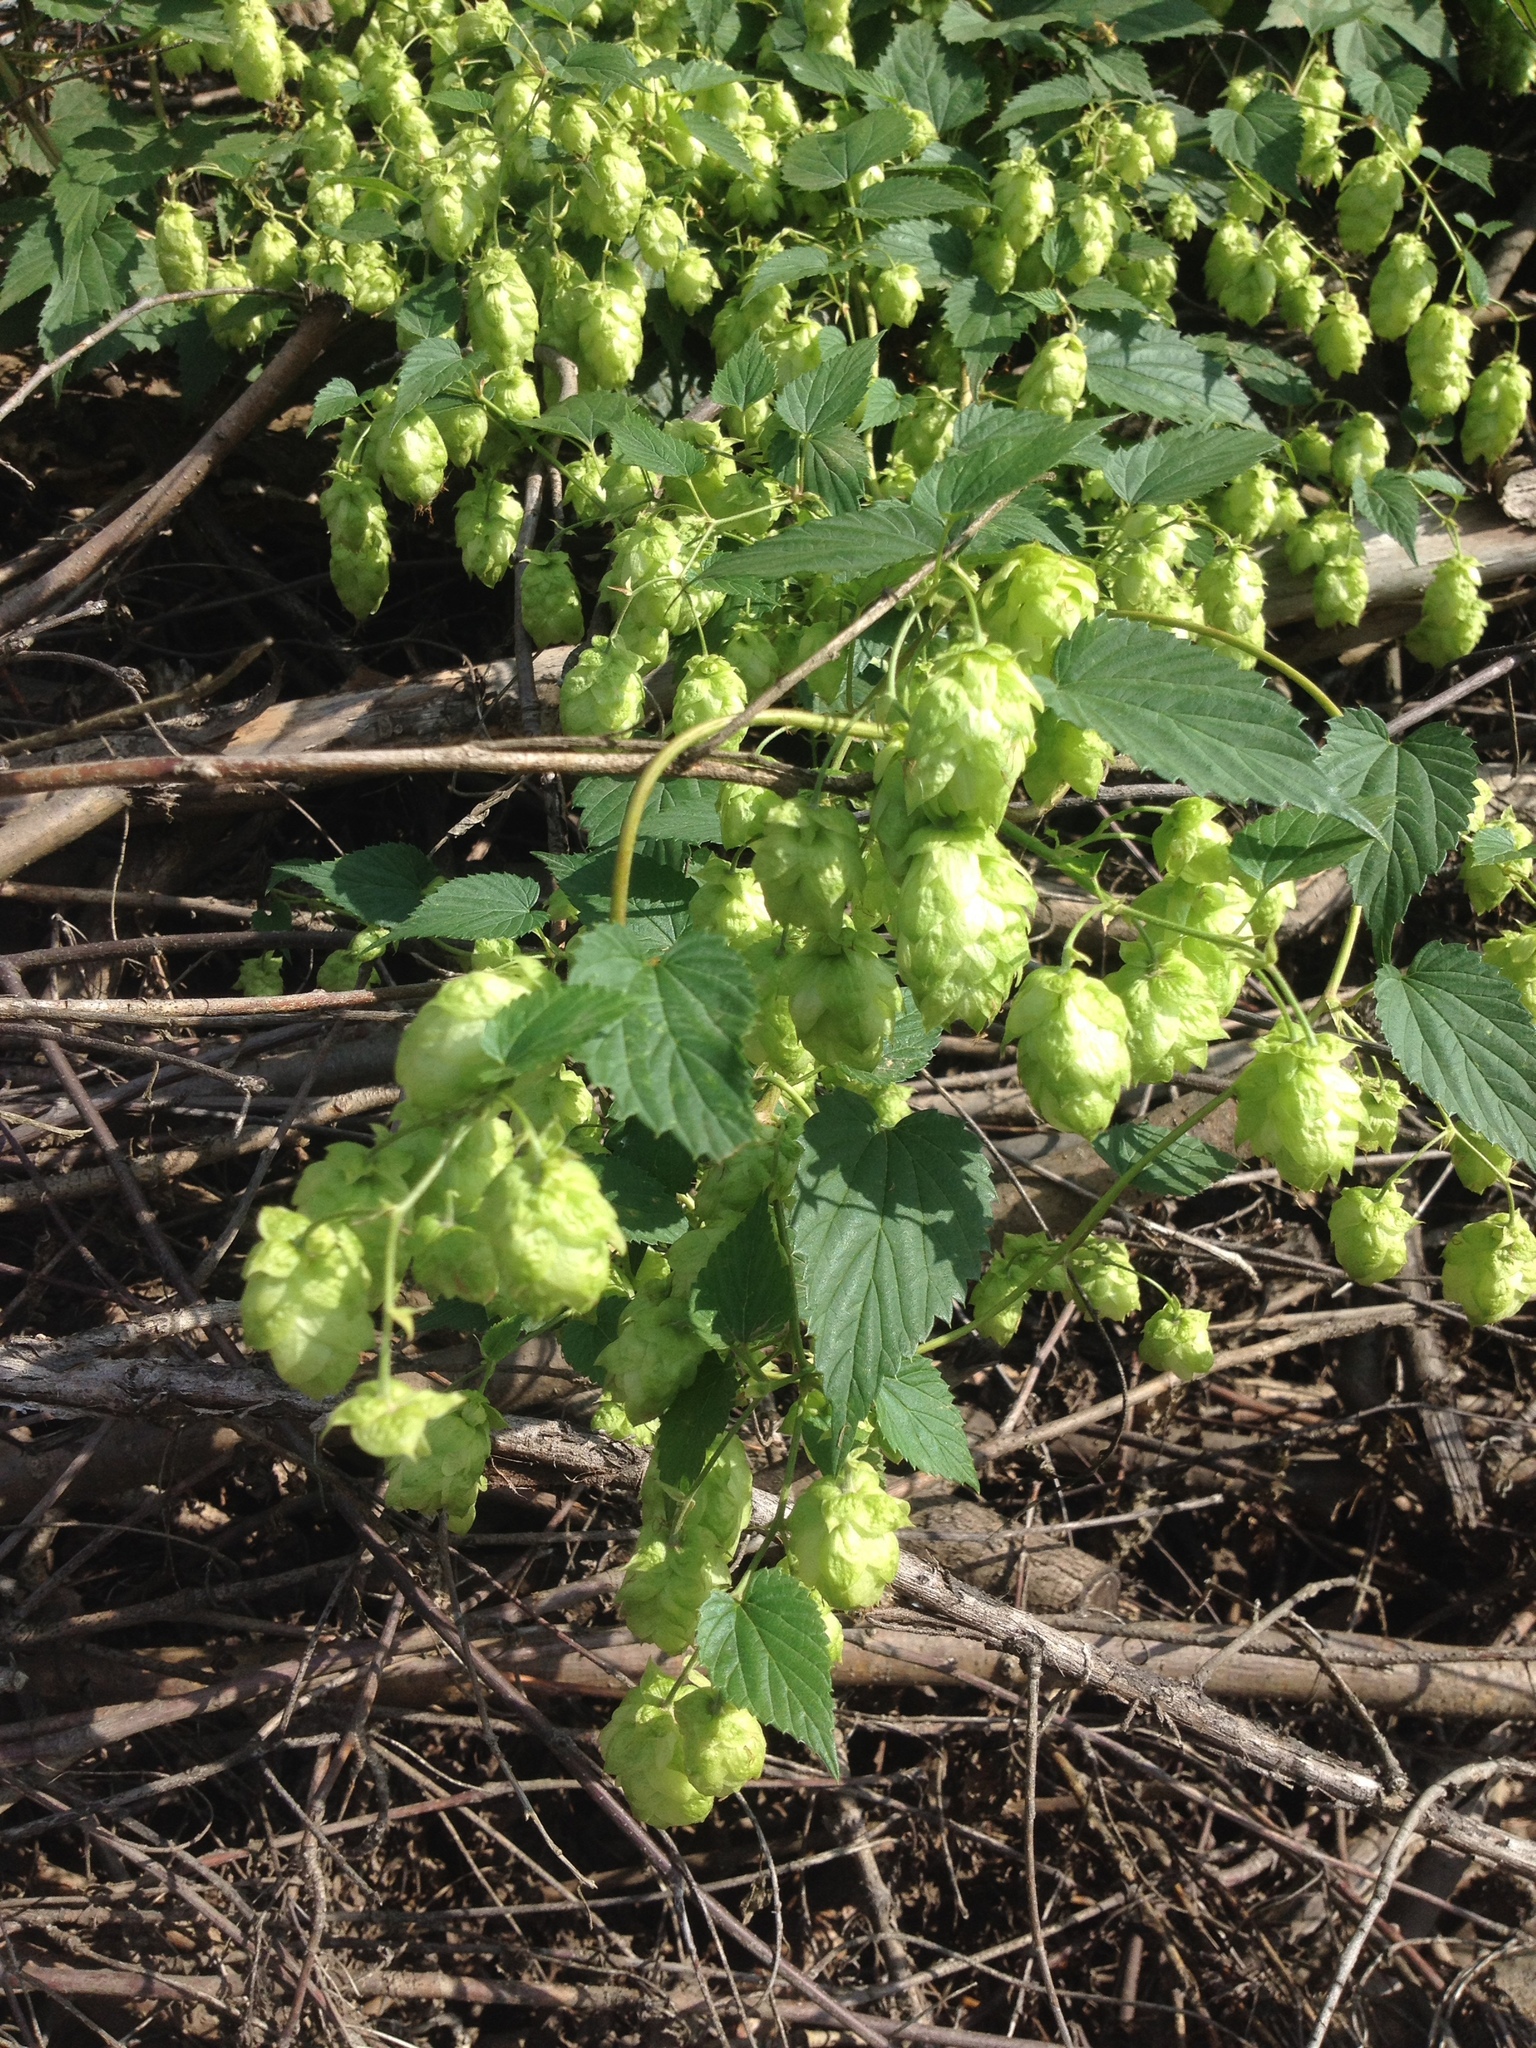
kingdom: Plantae
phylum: Tracheophyta
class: Magnoliopsida
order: Rosales
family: Cannabaceae
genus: Humulus
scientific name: Humulus lupulus
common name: Hop
